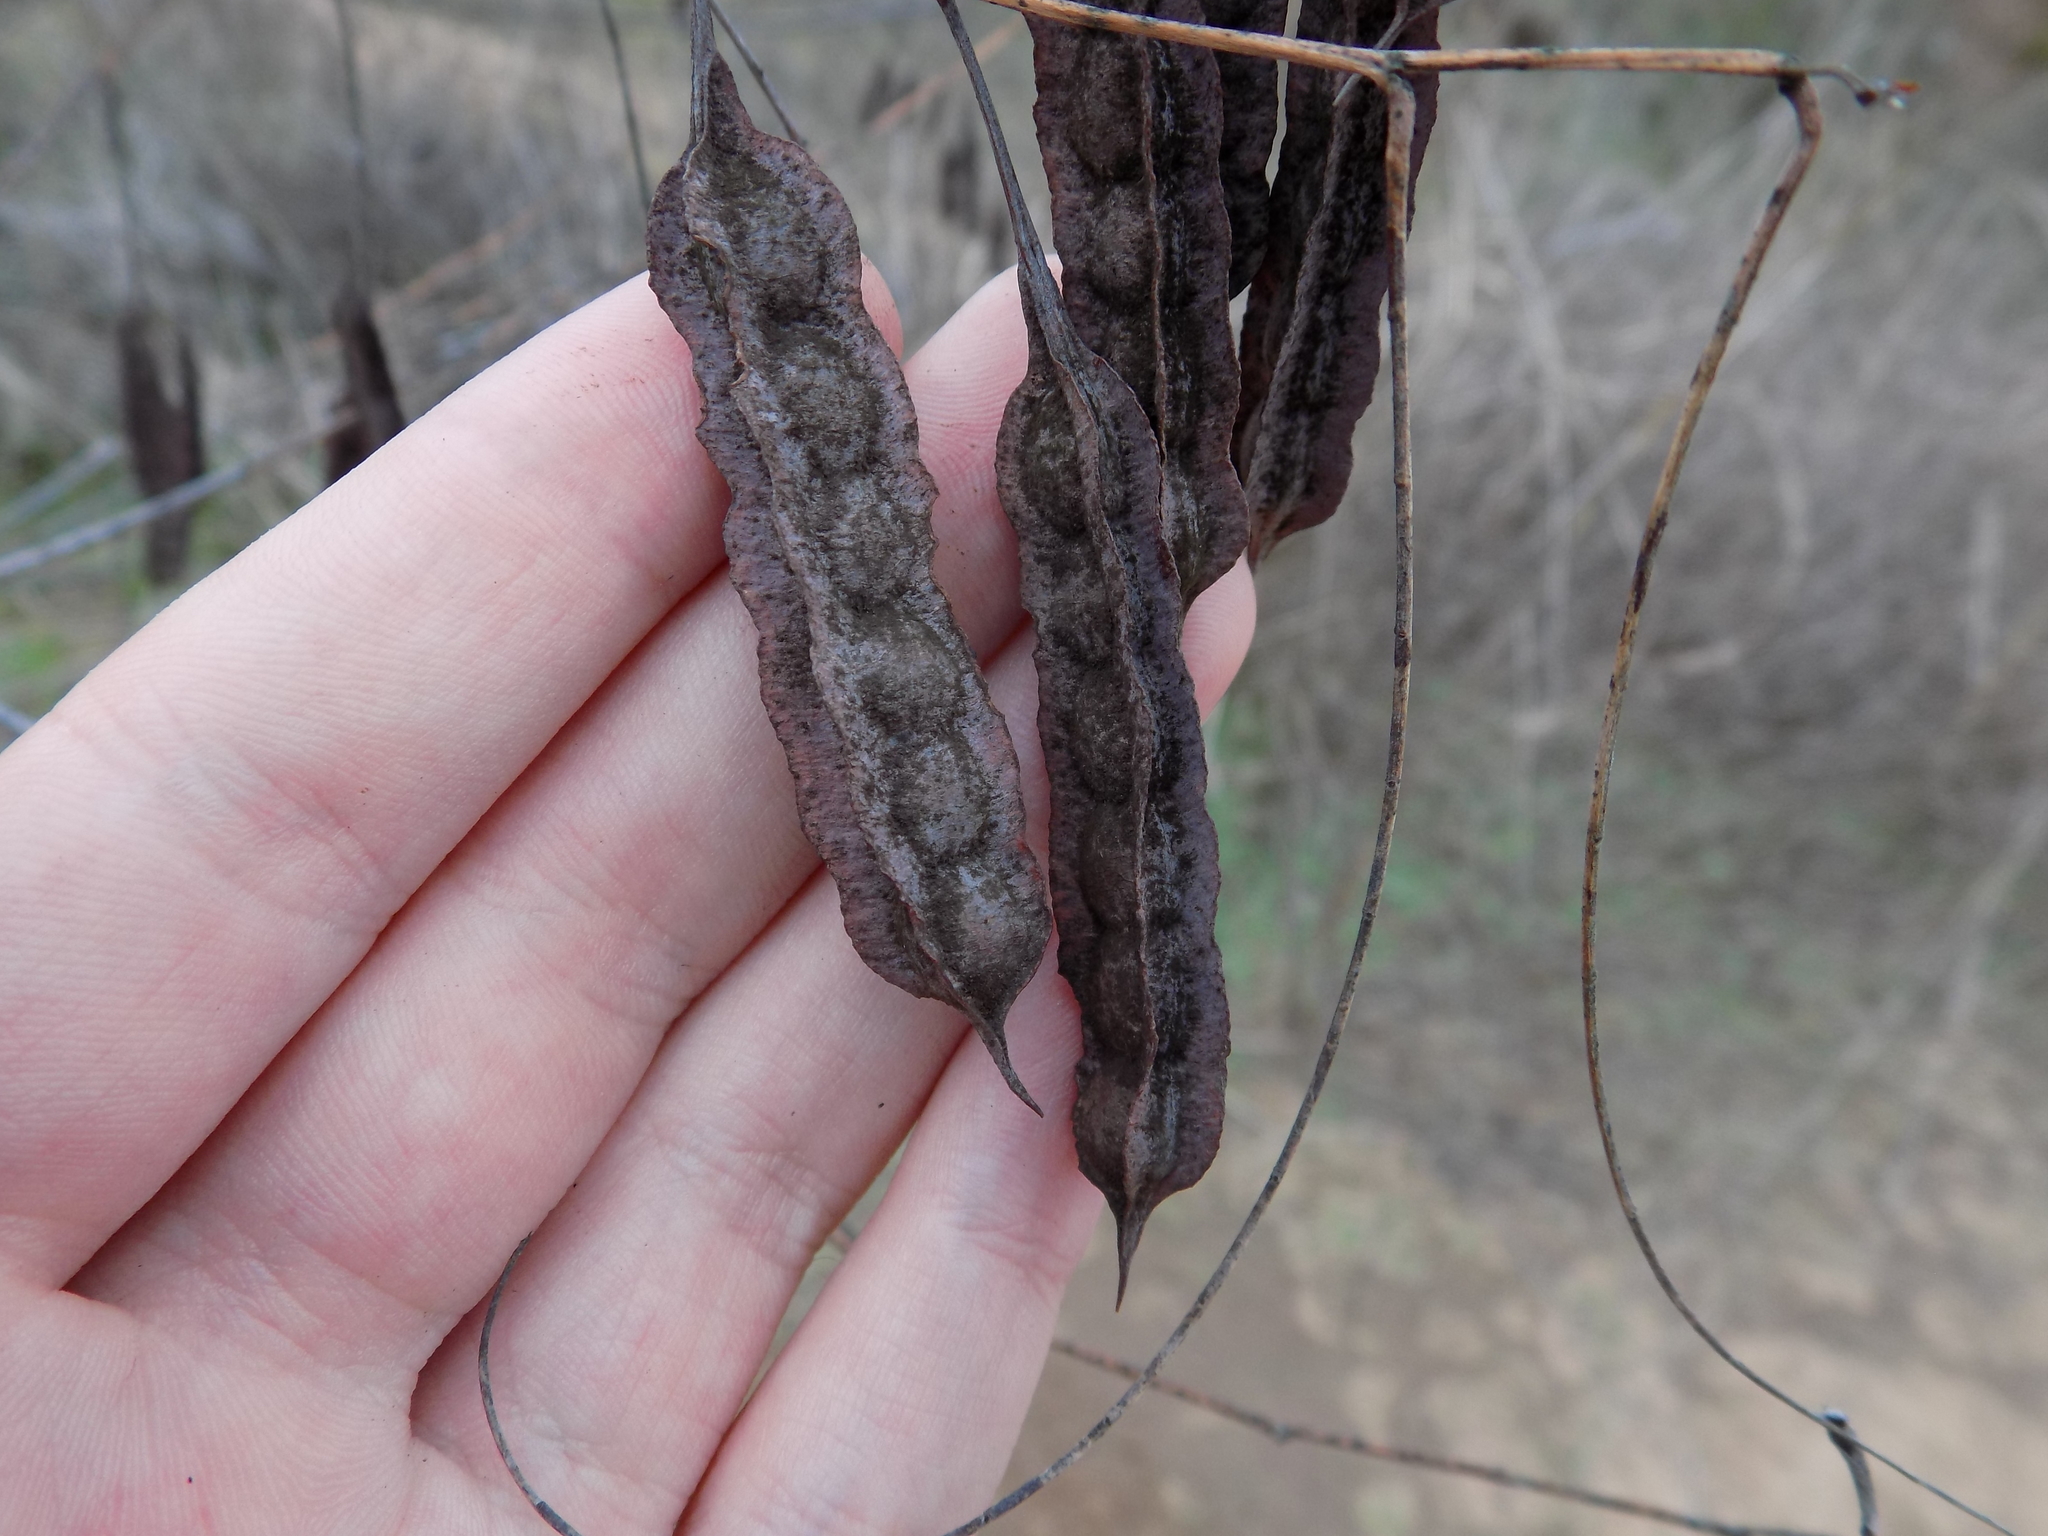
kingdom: Plantae
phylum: Tracheophyta
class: Magnoliopsida
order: Fabales
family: Fabaceae
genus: Sesbania
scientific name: Sesbania drummondii
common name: Poison-bean
